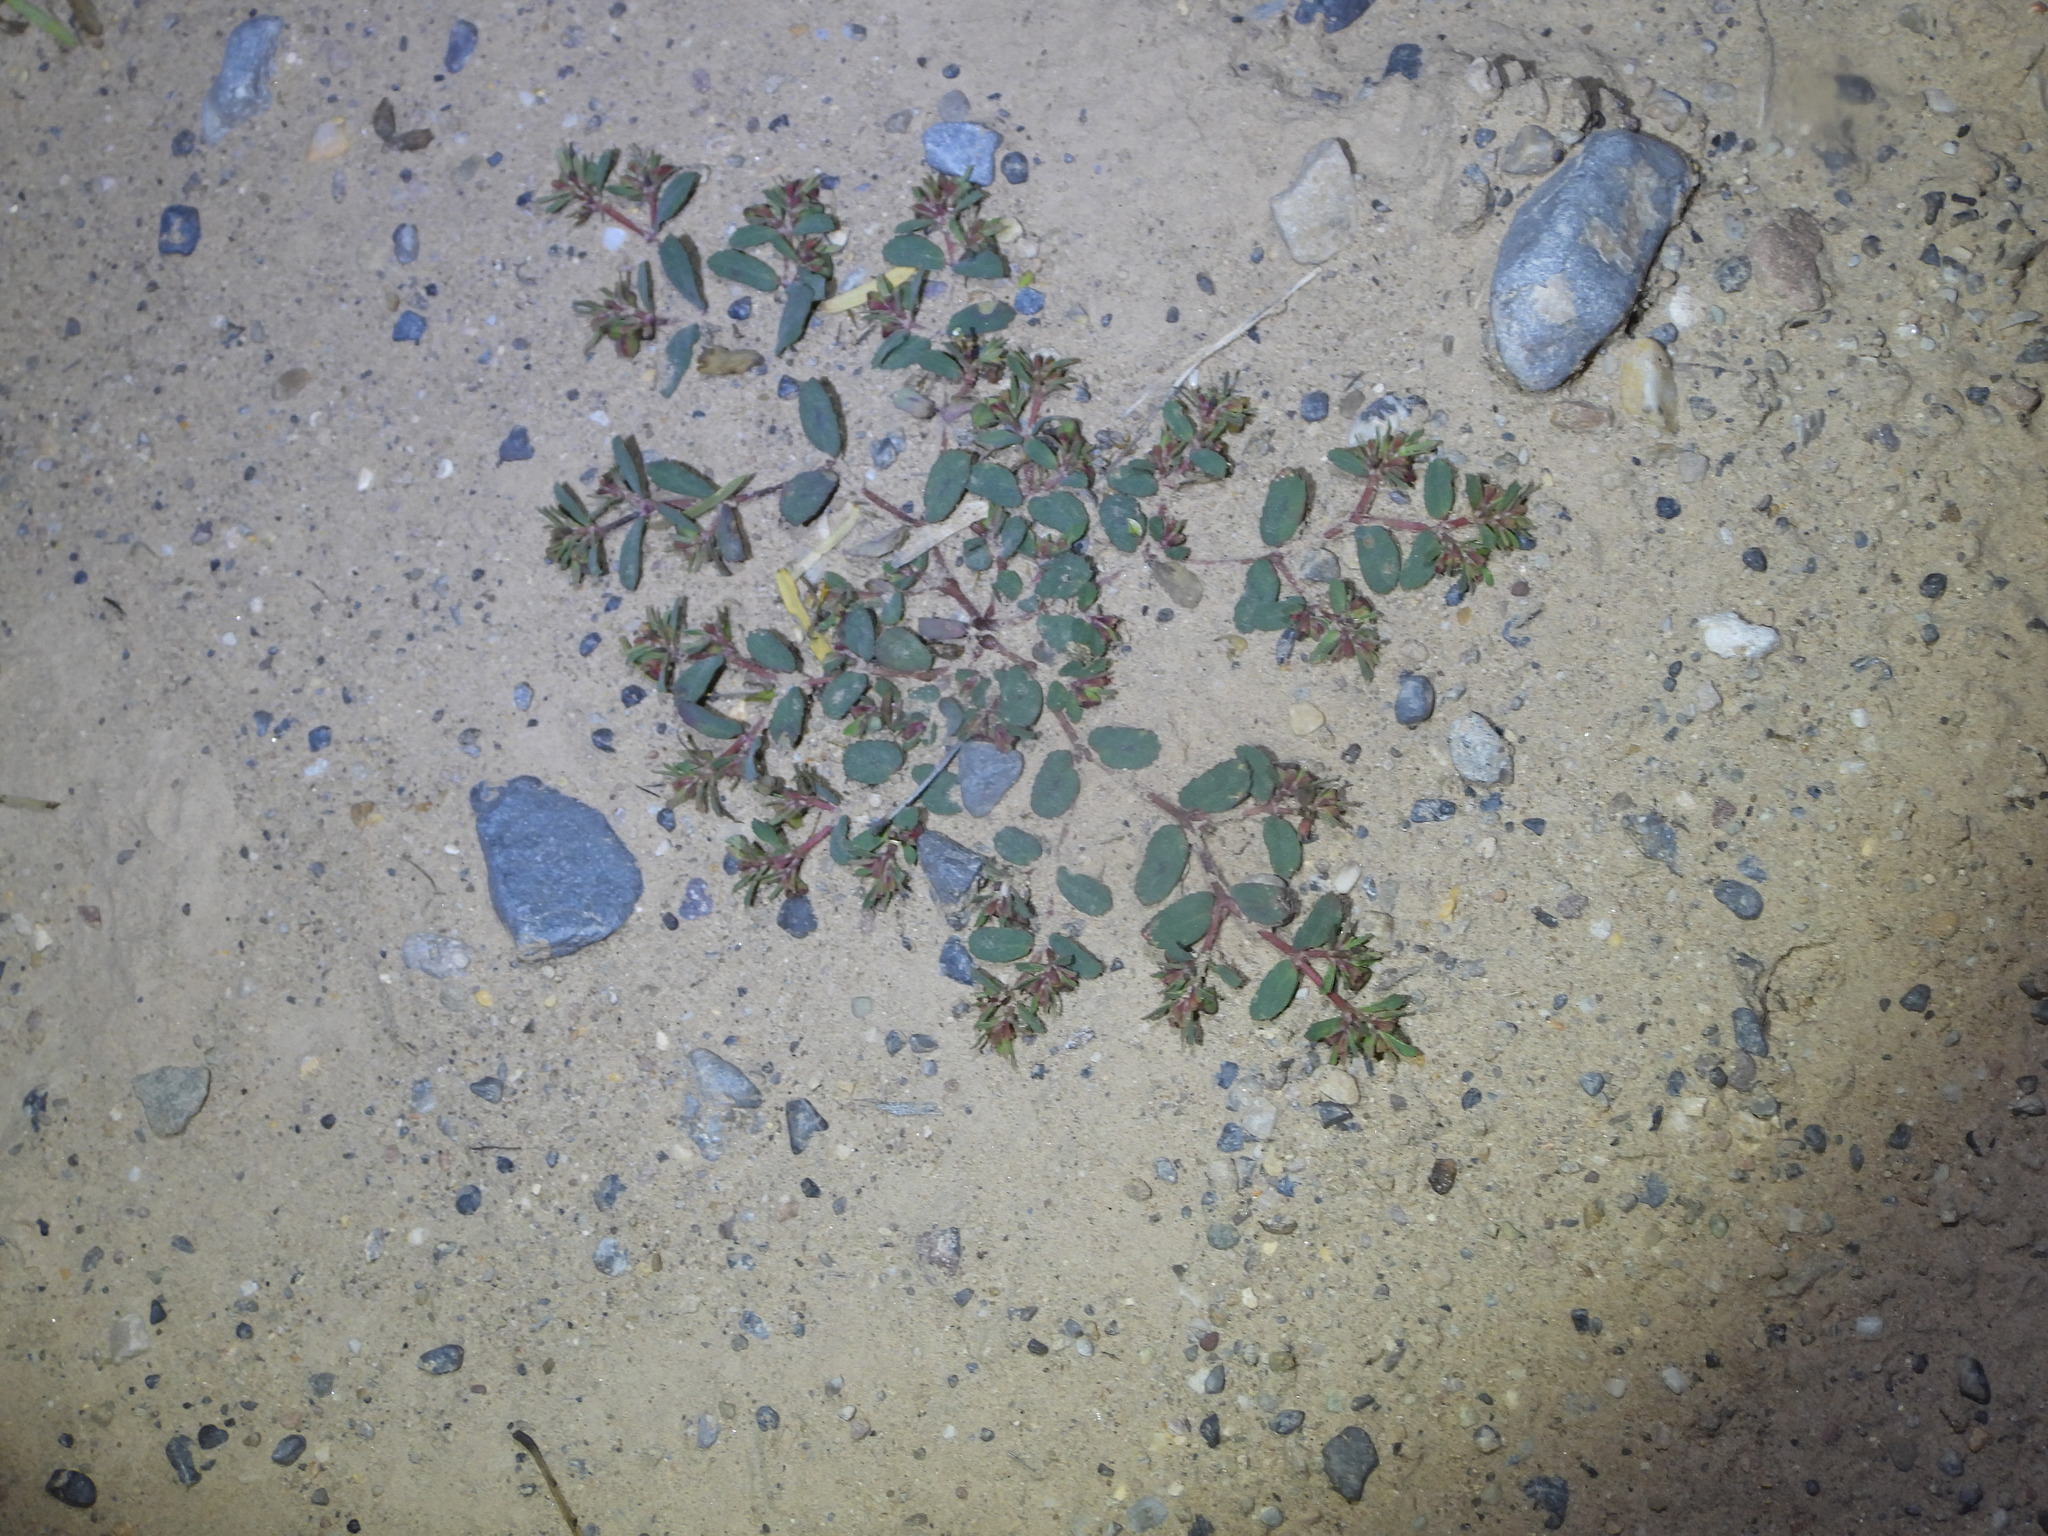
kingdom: Plantae
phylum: Tracheophyta
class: Magnoliopsida
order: Malpighiales
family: Euphorbiaceae
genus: Euphorbia
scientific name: Euphorbia serrula
